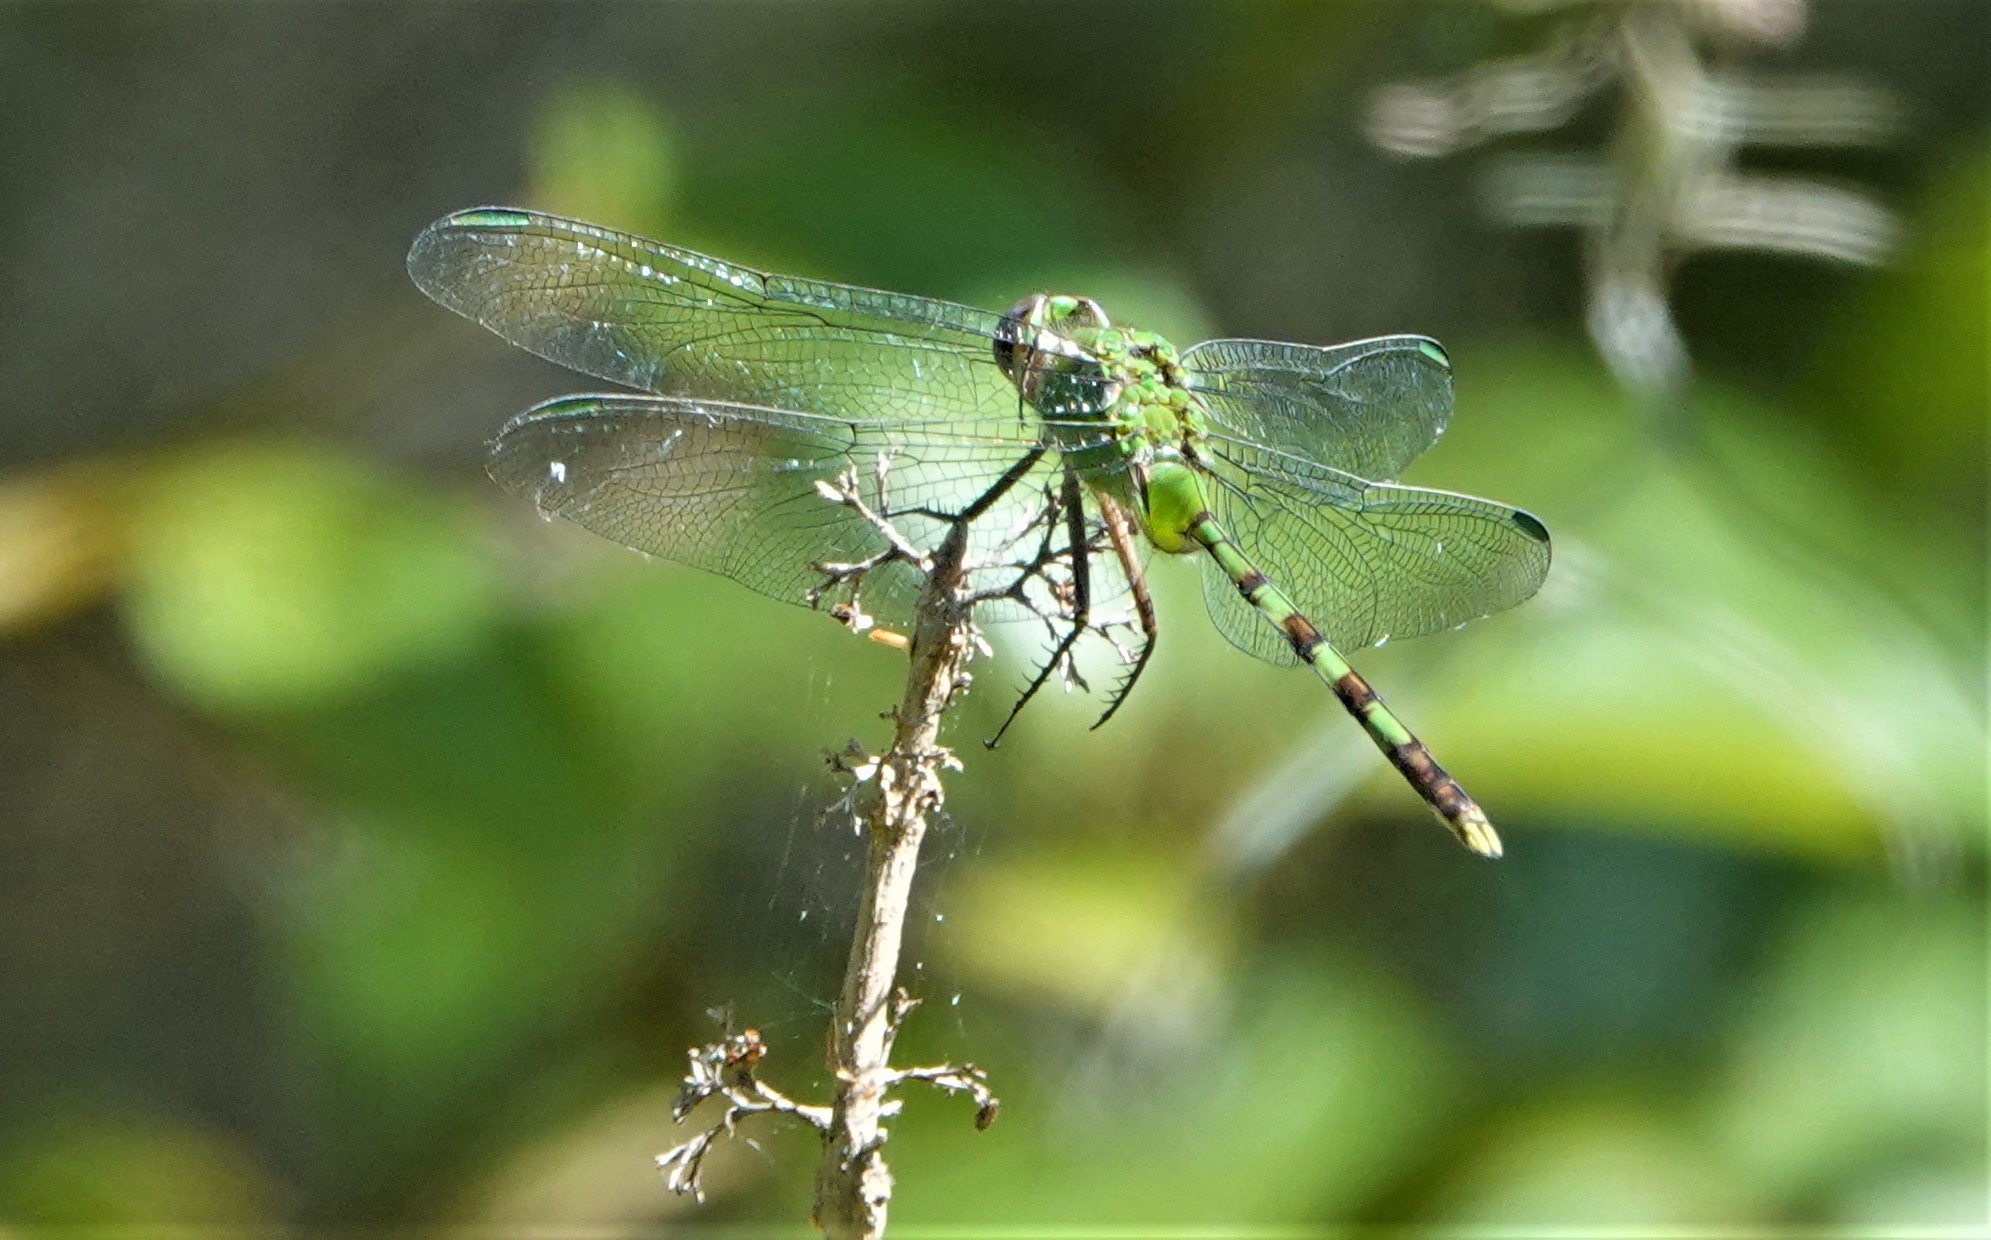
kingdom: Animalia
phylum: Arthropoda
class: Insecta
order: Odonata
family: Libellulidae
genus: Erythemis
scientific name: Erythemis vesiculosa
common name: Great pondhawk
